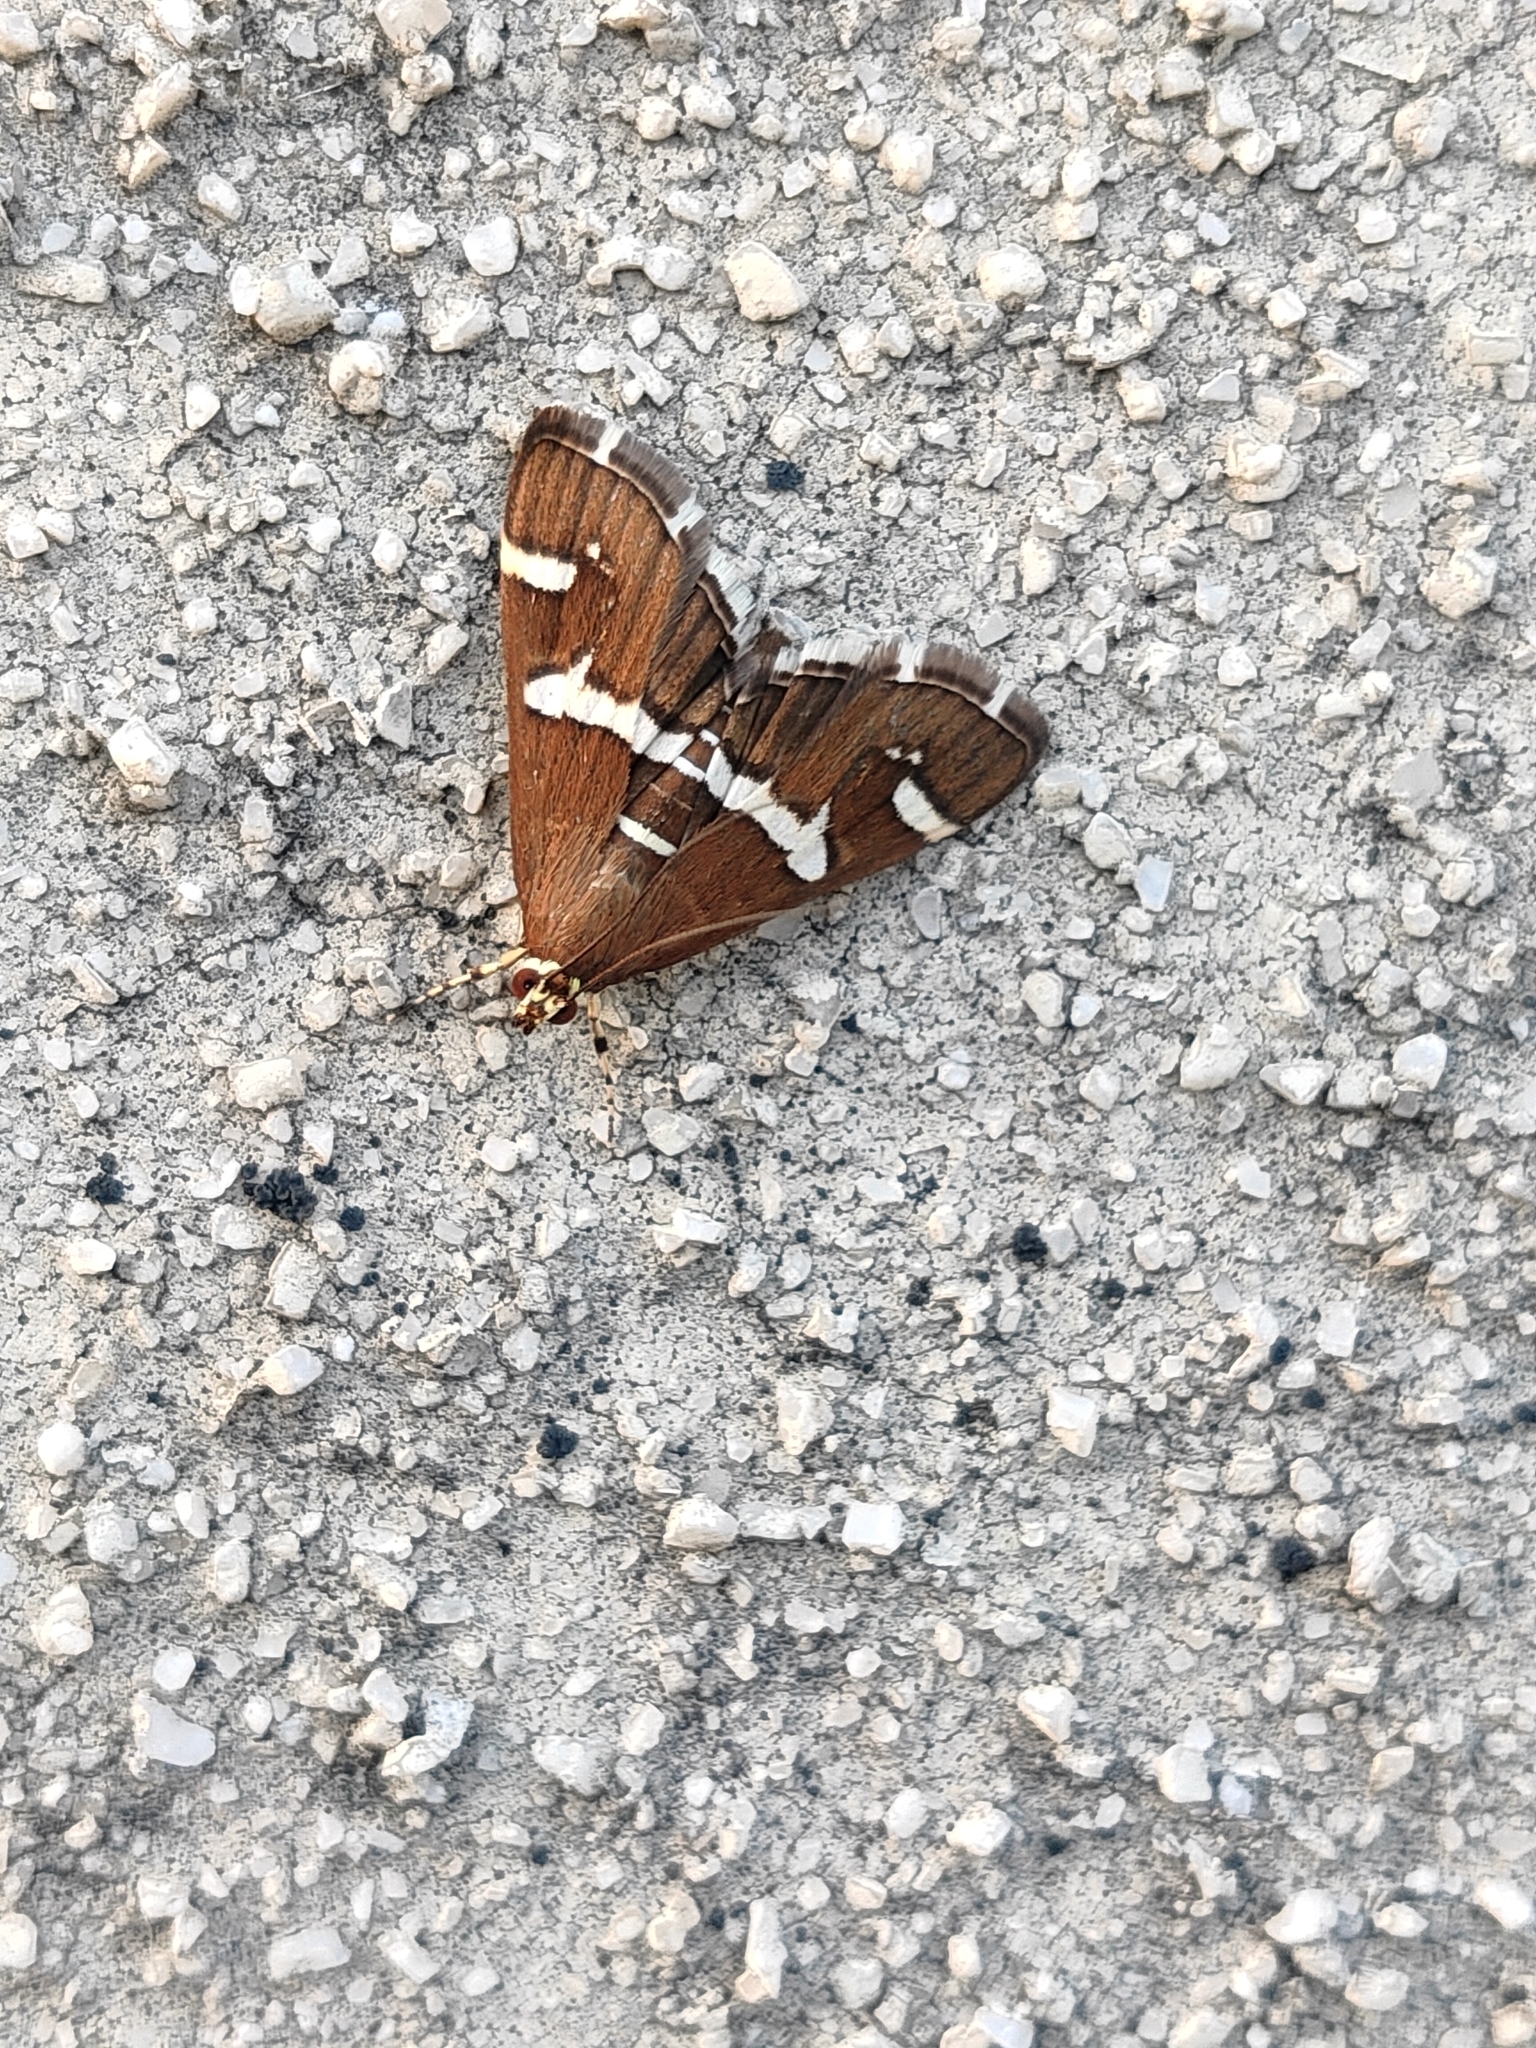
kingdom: Animalia
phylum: Arthropoda
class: Insecta
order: Lepidoptera
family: Crambidae
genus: Spoladea
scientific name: Spoladea recurvalis
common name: Beet webworm moth
